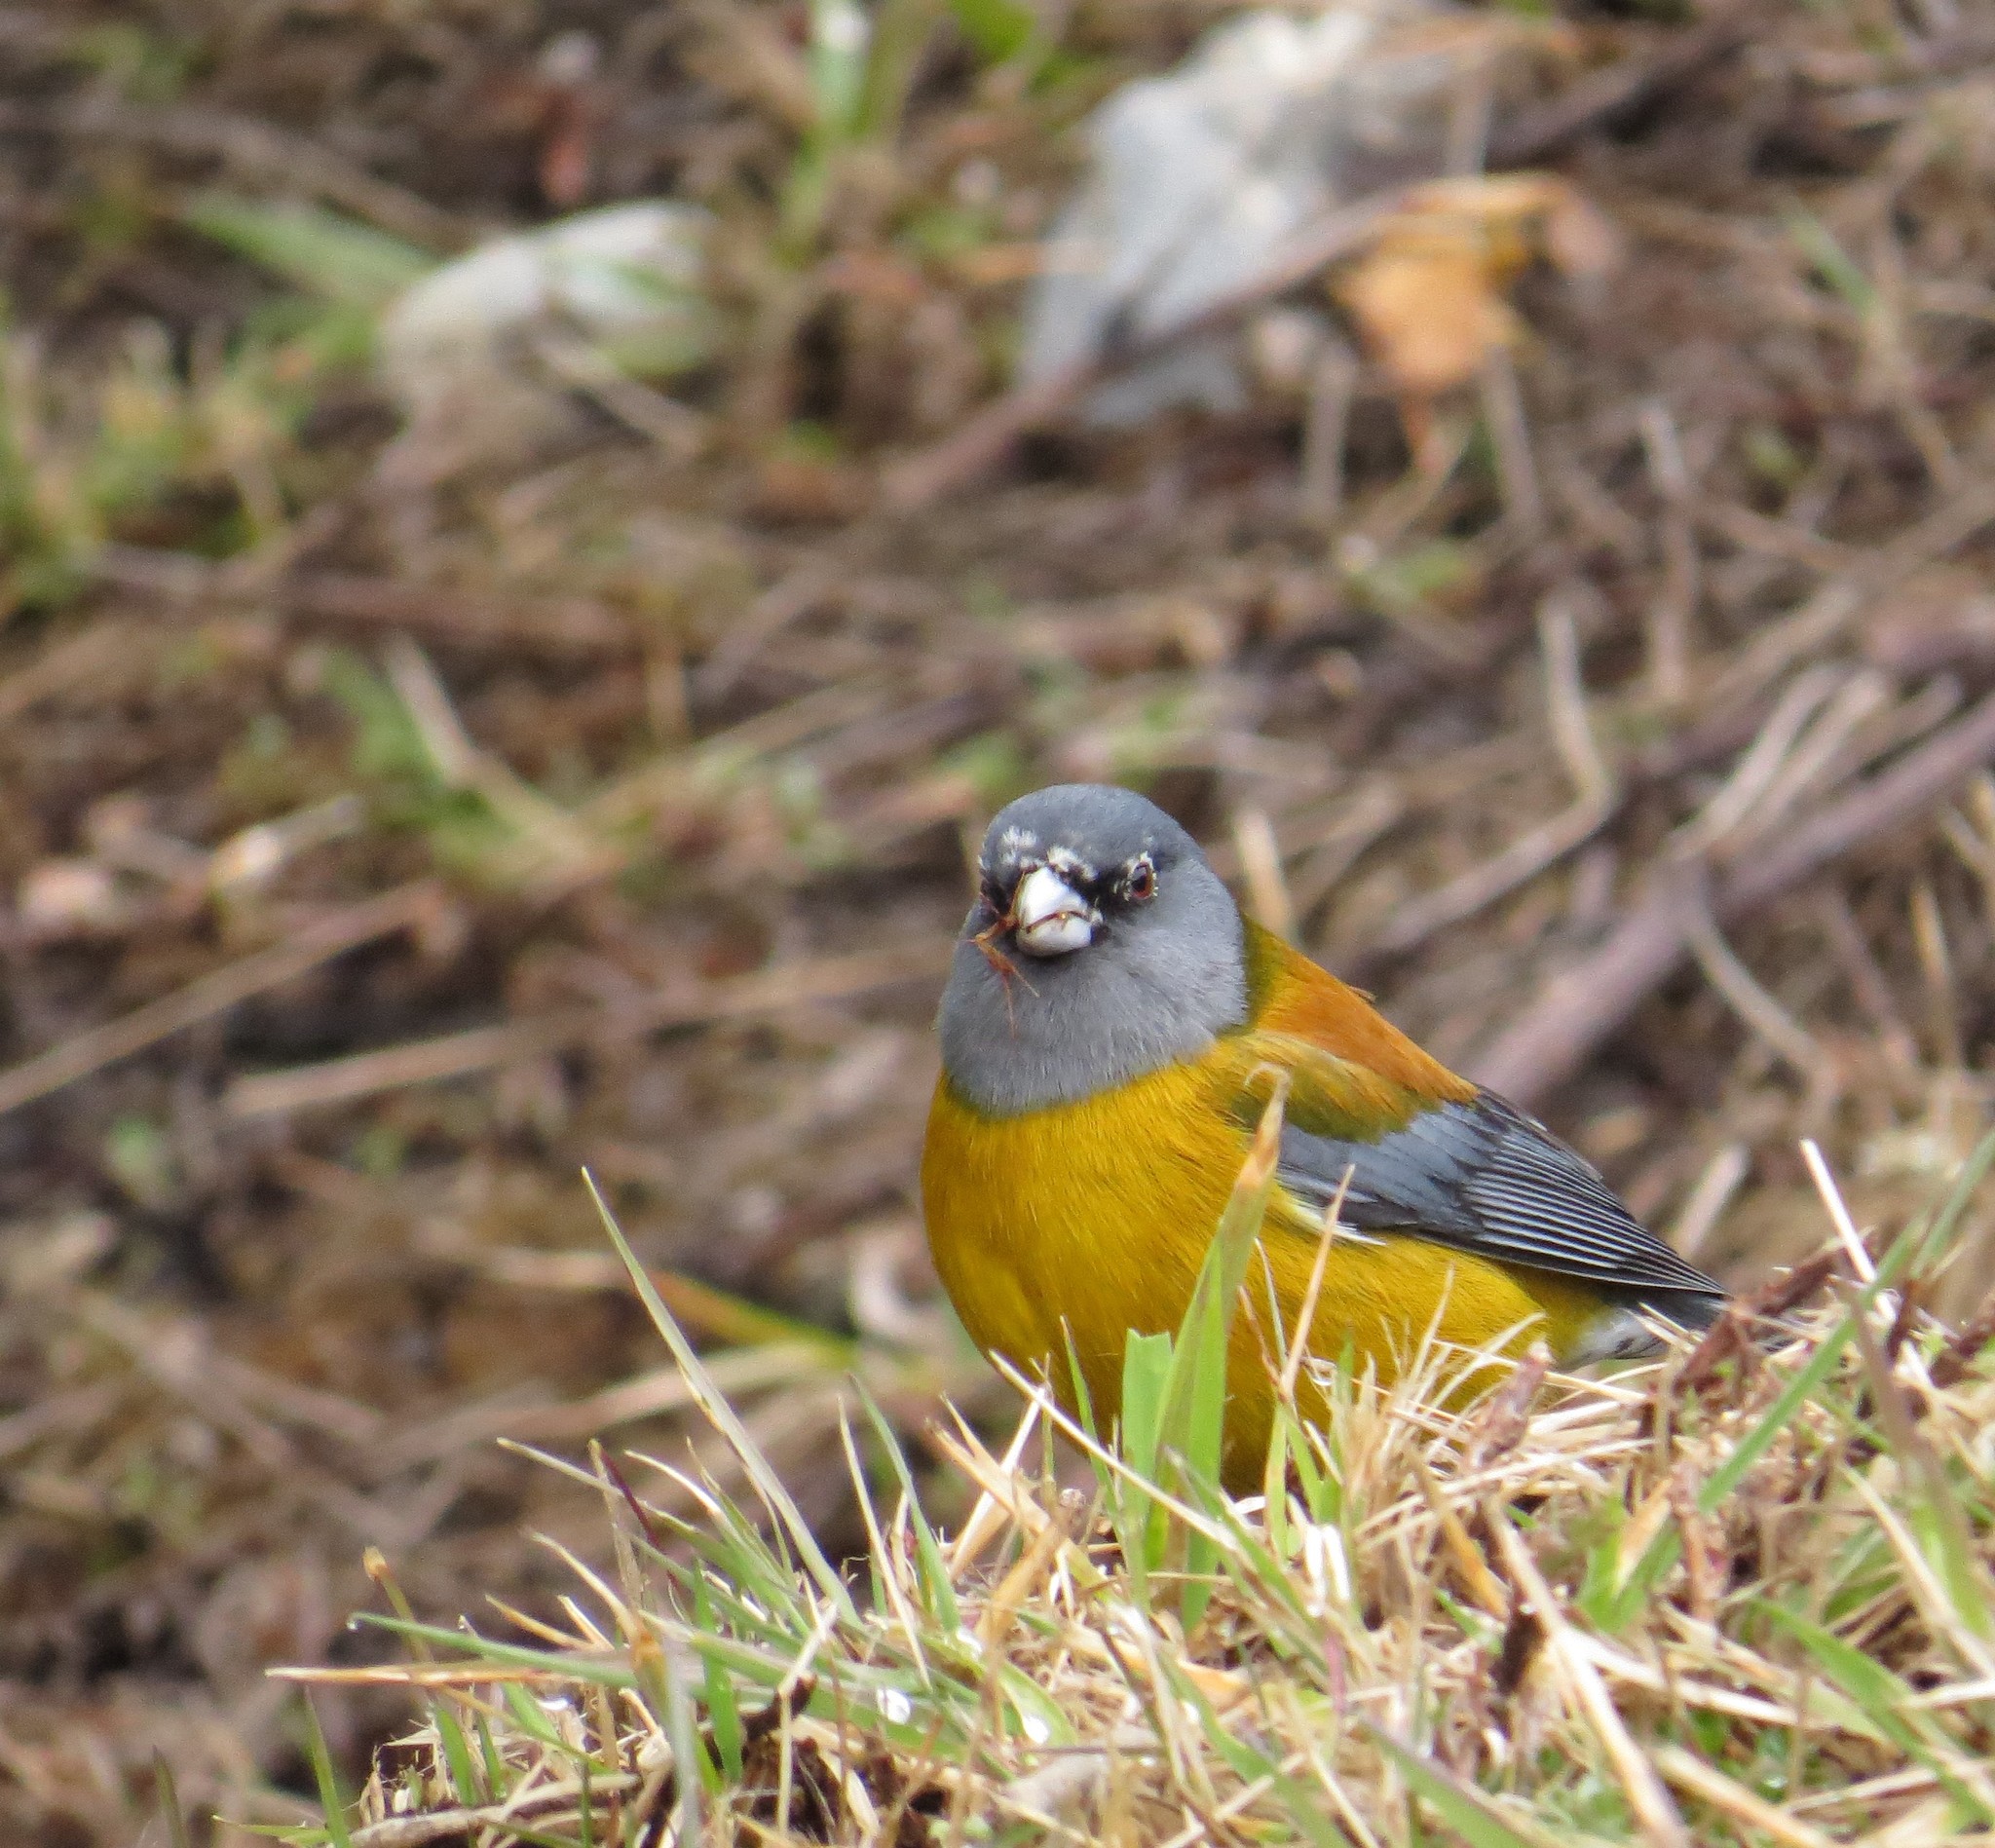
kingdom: Animalia
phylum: Chordata
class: Aves
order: Passeriformes
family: Thraupidae
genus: Phrygilus
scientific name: Phrygilus patagonicus
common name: Patagonian sierra finch
